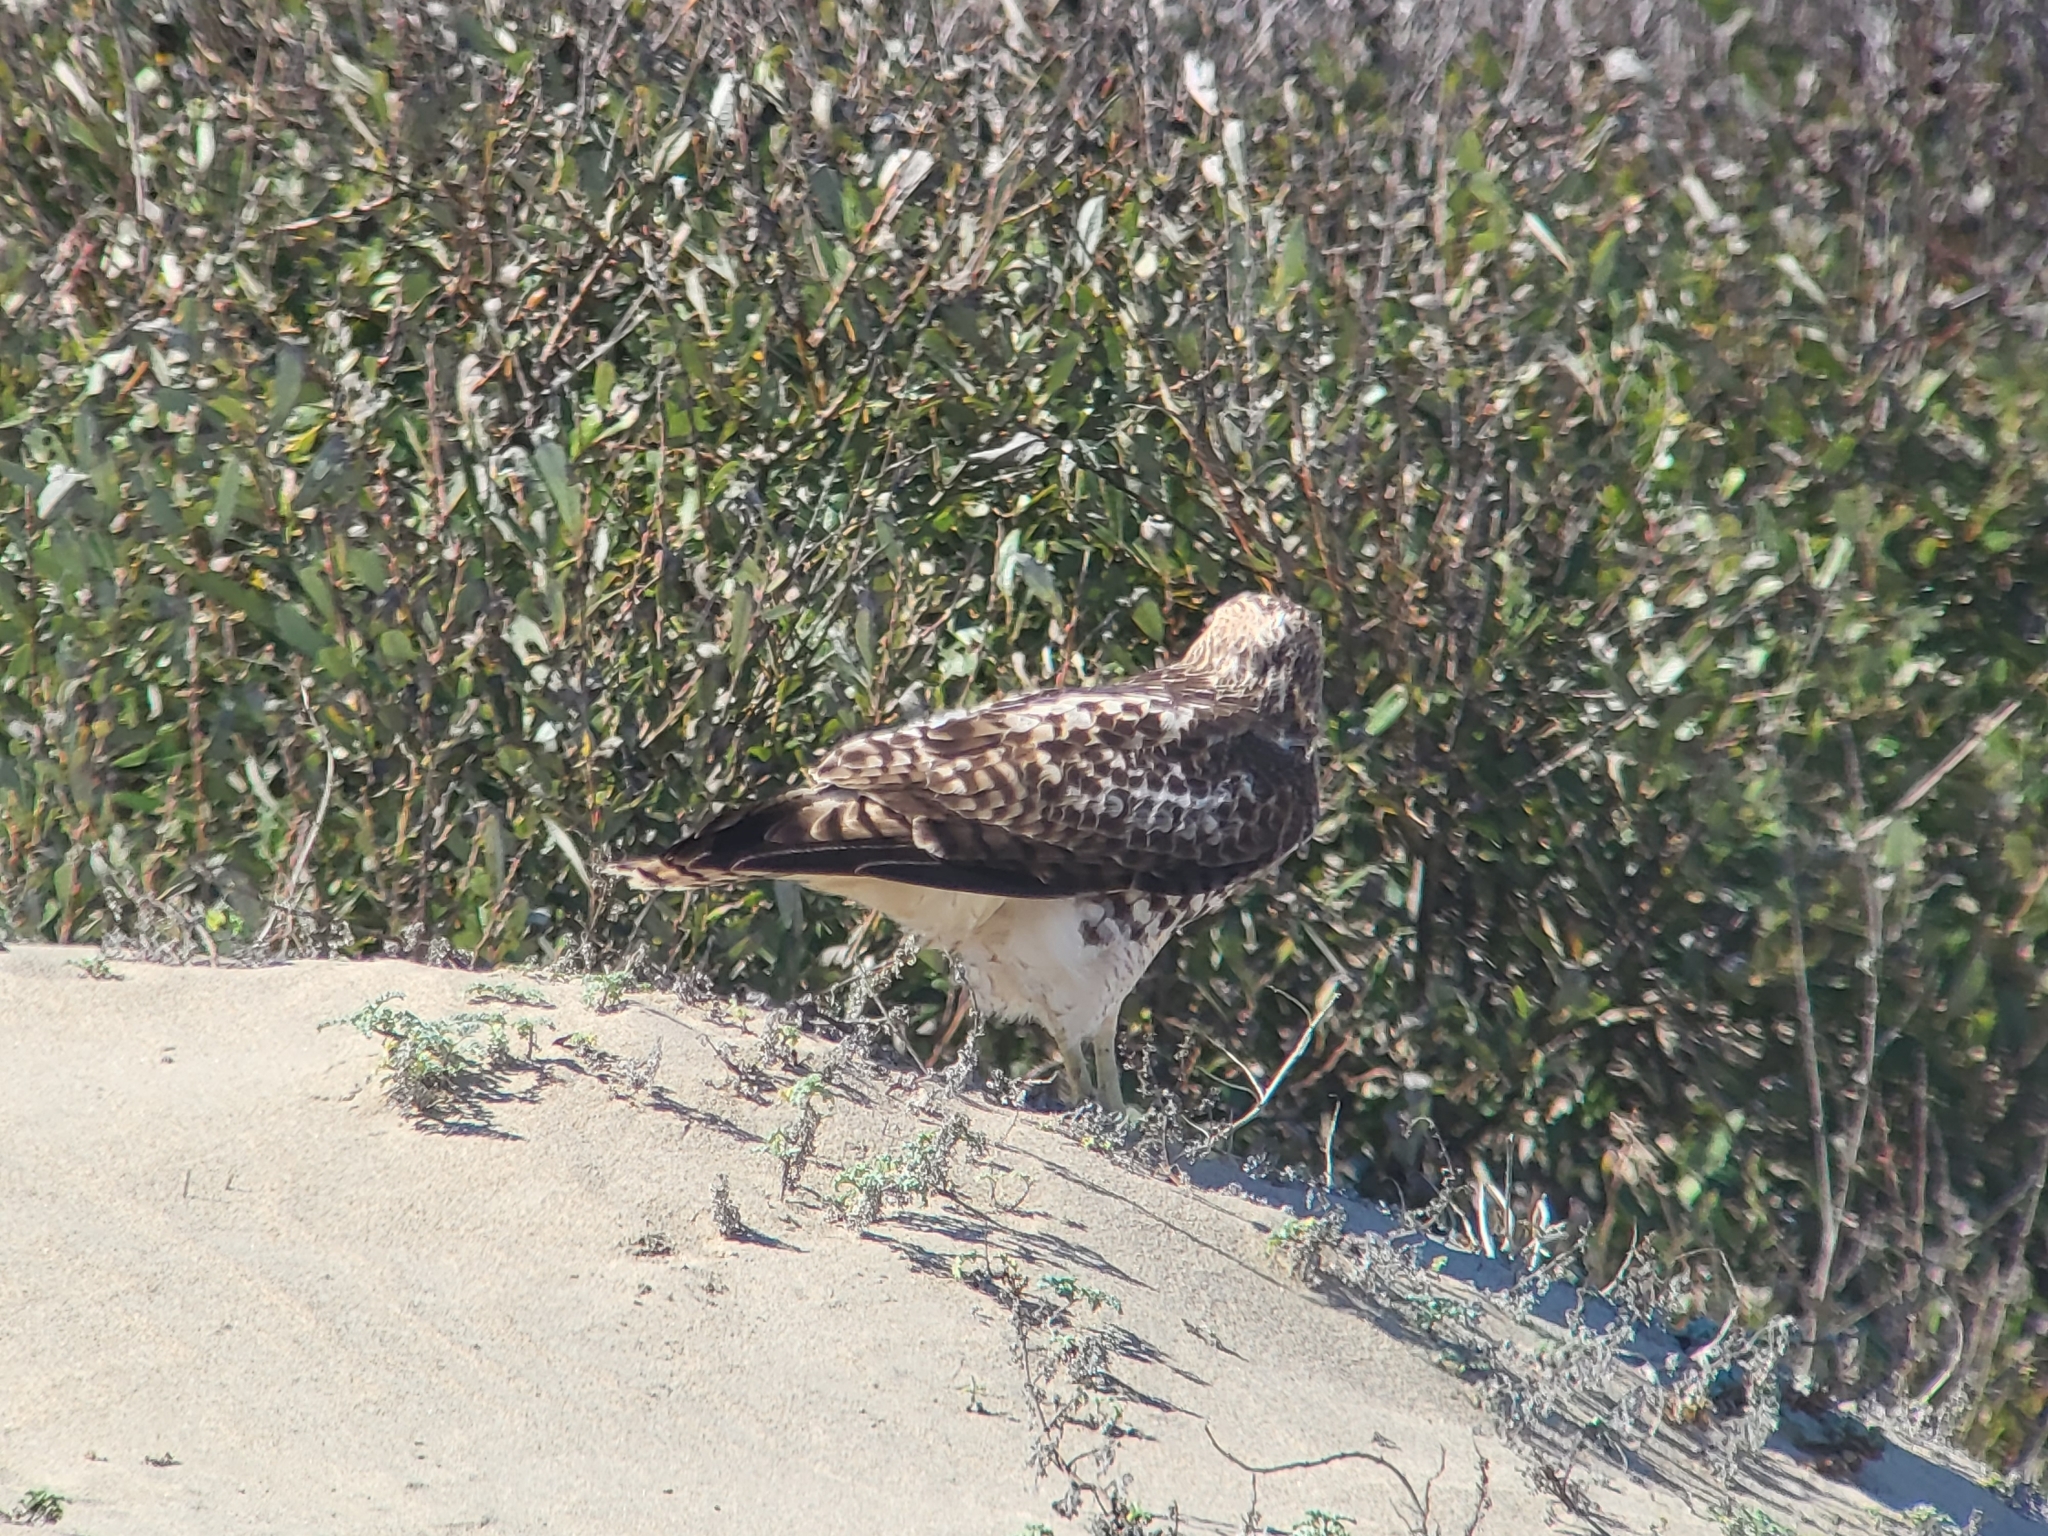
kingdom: Animalia
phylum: Chordata
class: Aves
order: Accipitriformes
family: Accipitridae
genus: Buteo
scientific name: Buteo jamaicensis
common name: Red-tailed hawk
